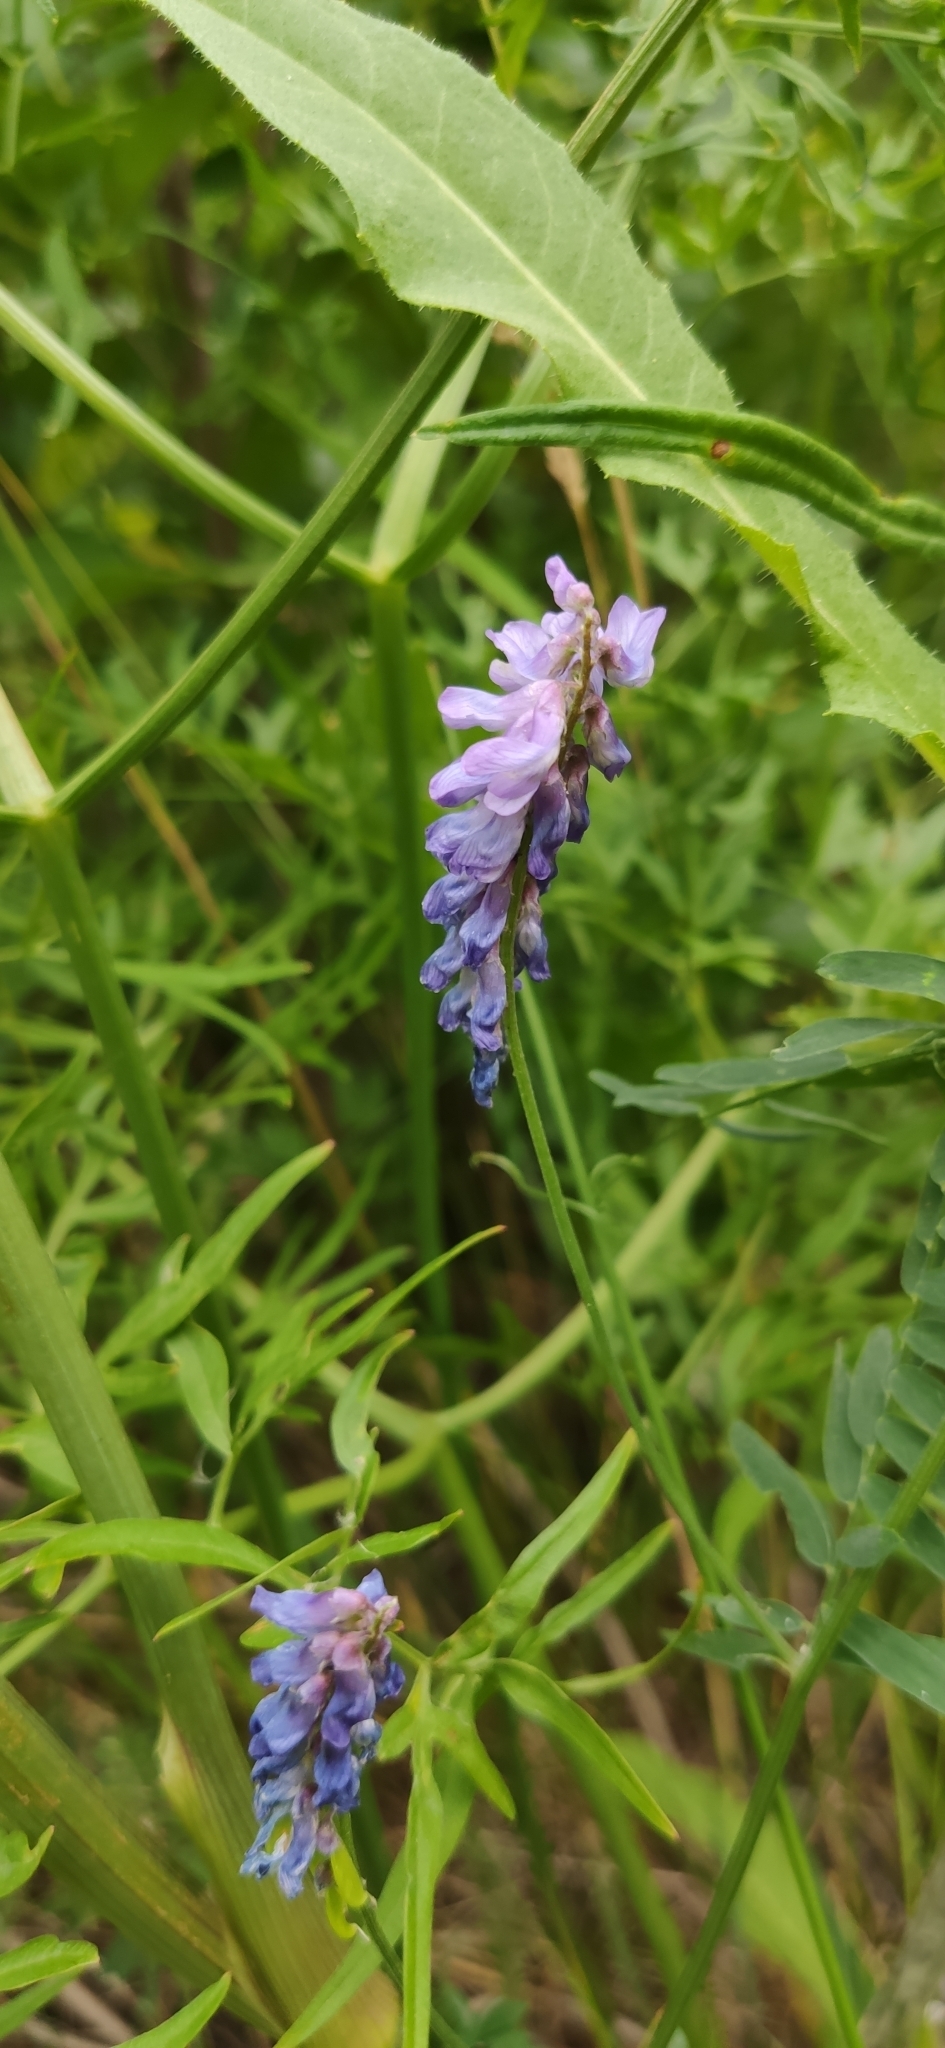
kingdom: Plantae
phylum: Tracheophyta
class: Magnoliopsida
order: Fabales
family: Fabaceae
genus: Vicia
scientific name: Vicia cracca
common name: Bird vetch
